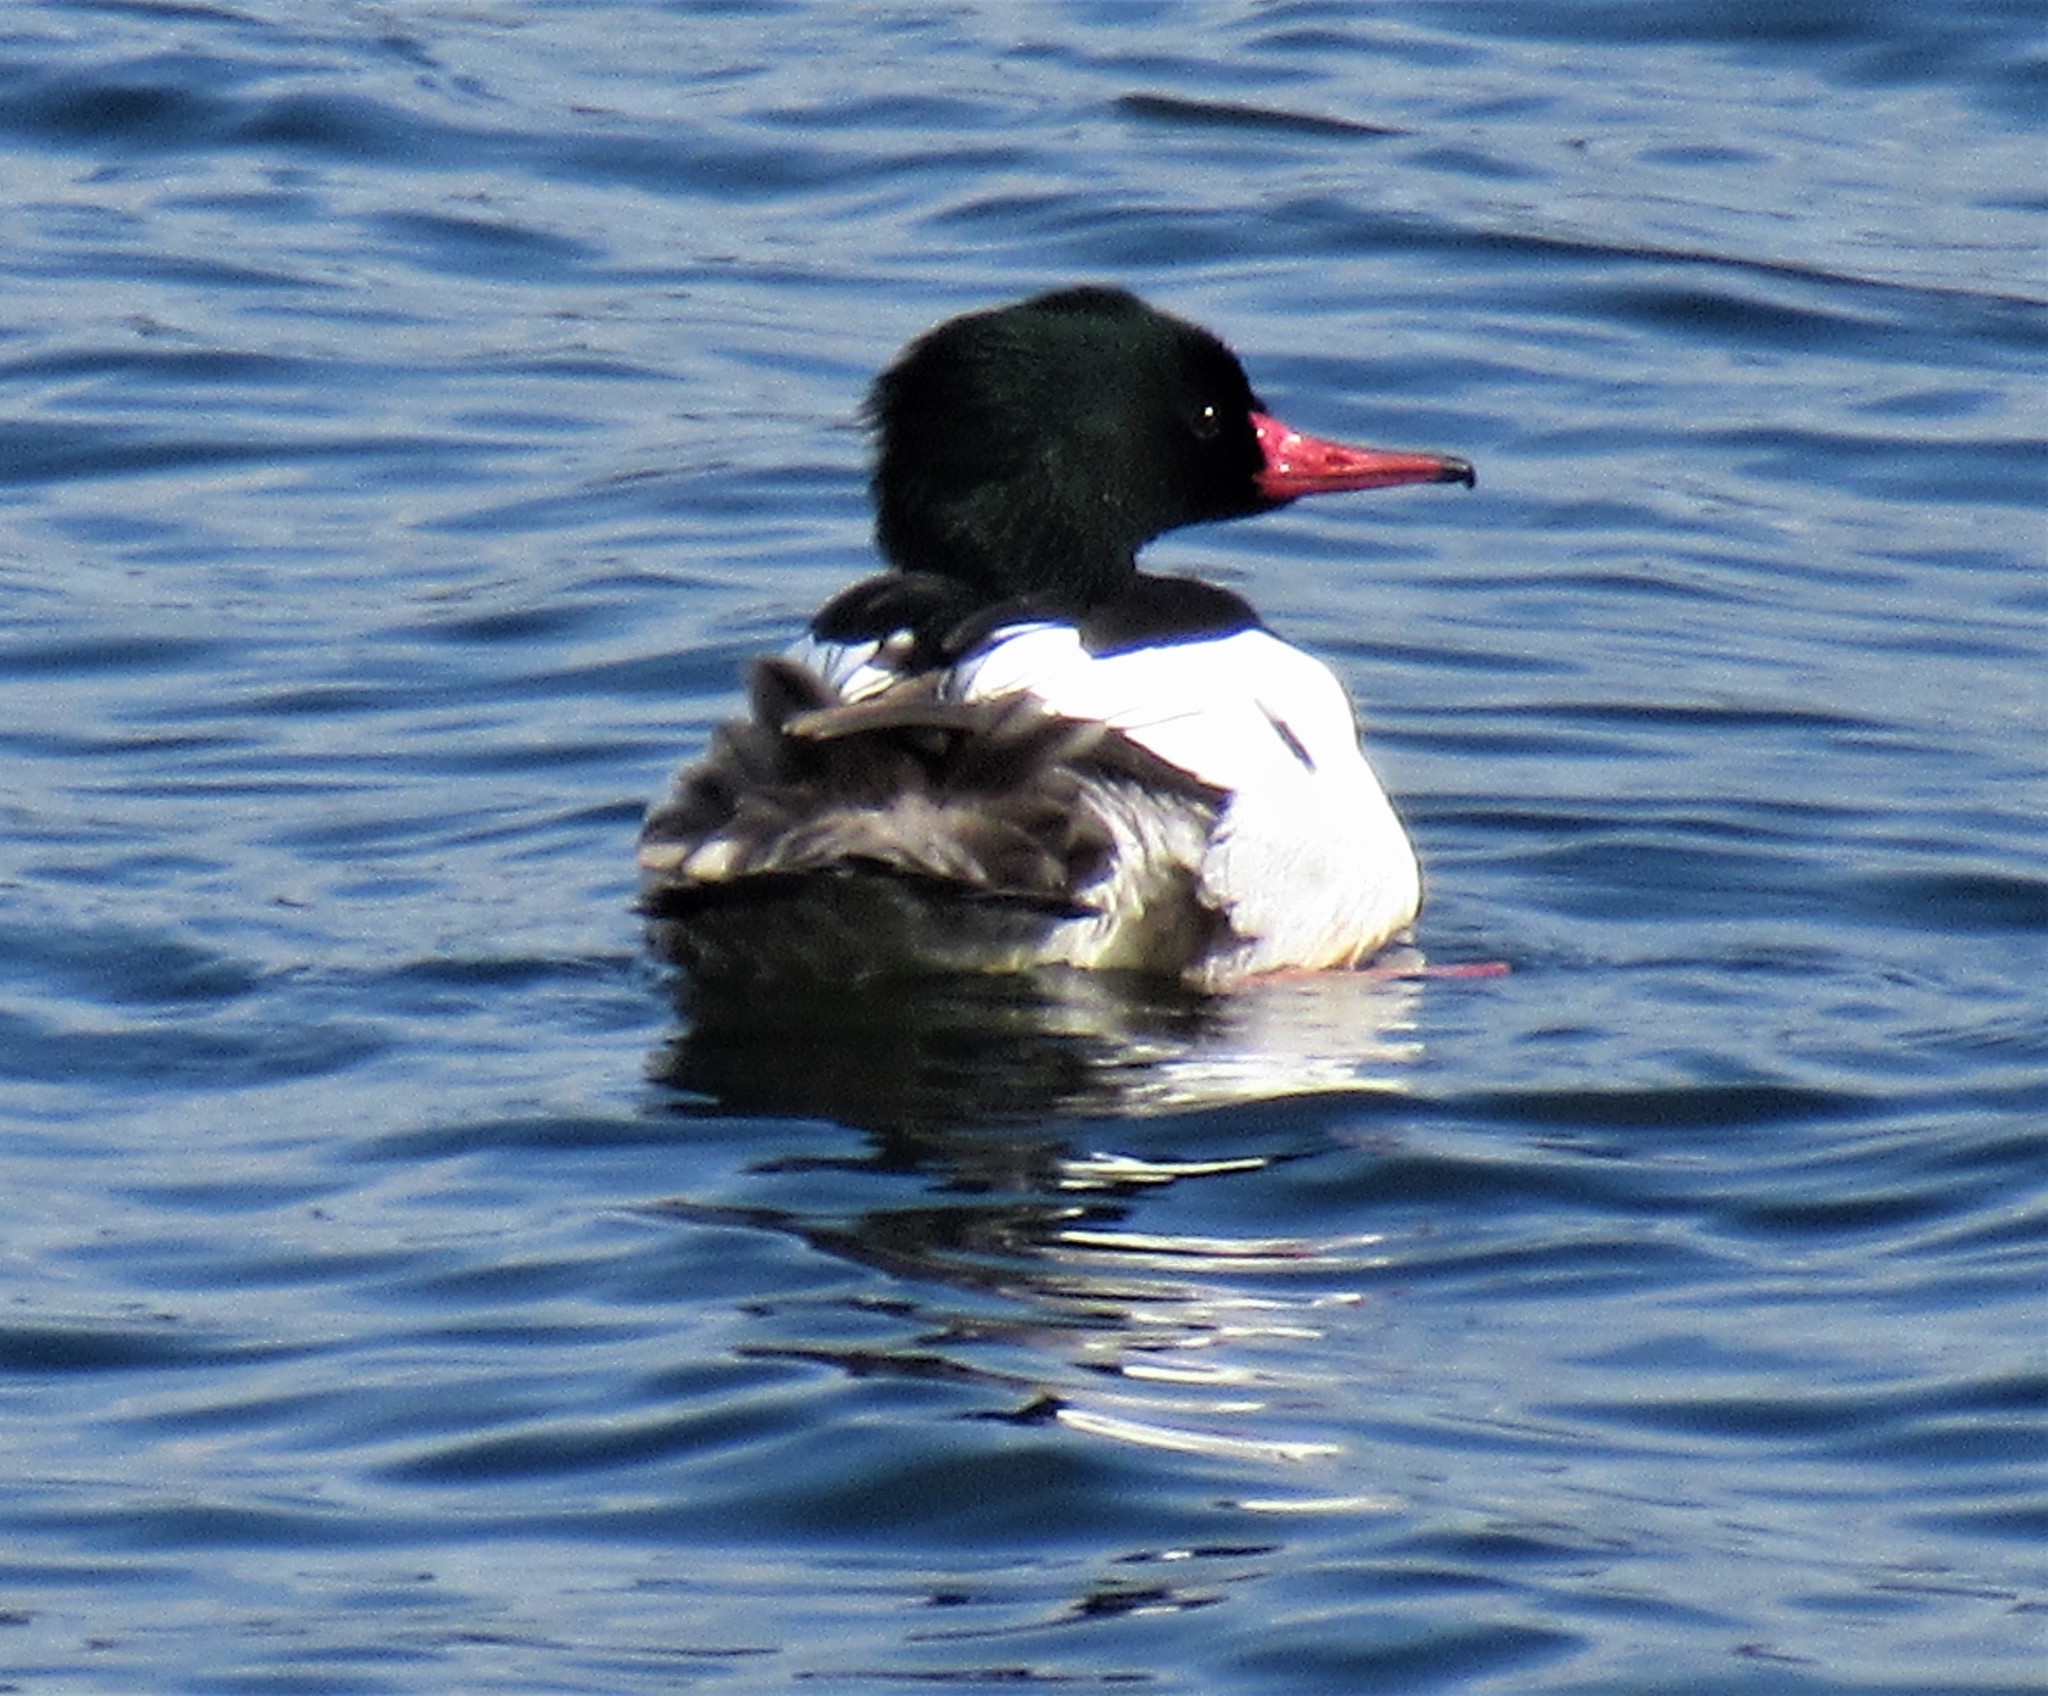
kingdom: Animalia
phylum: Chordata
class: Aves
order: Anseriformes
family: Anatidae
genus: Mergus
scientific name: Mergus merganser
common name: Common merganser
